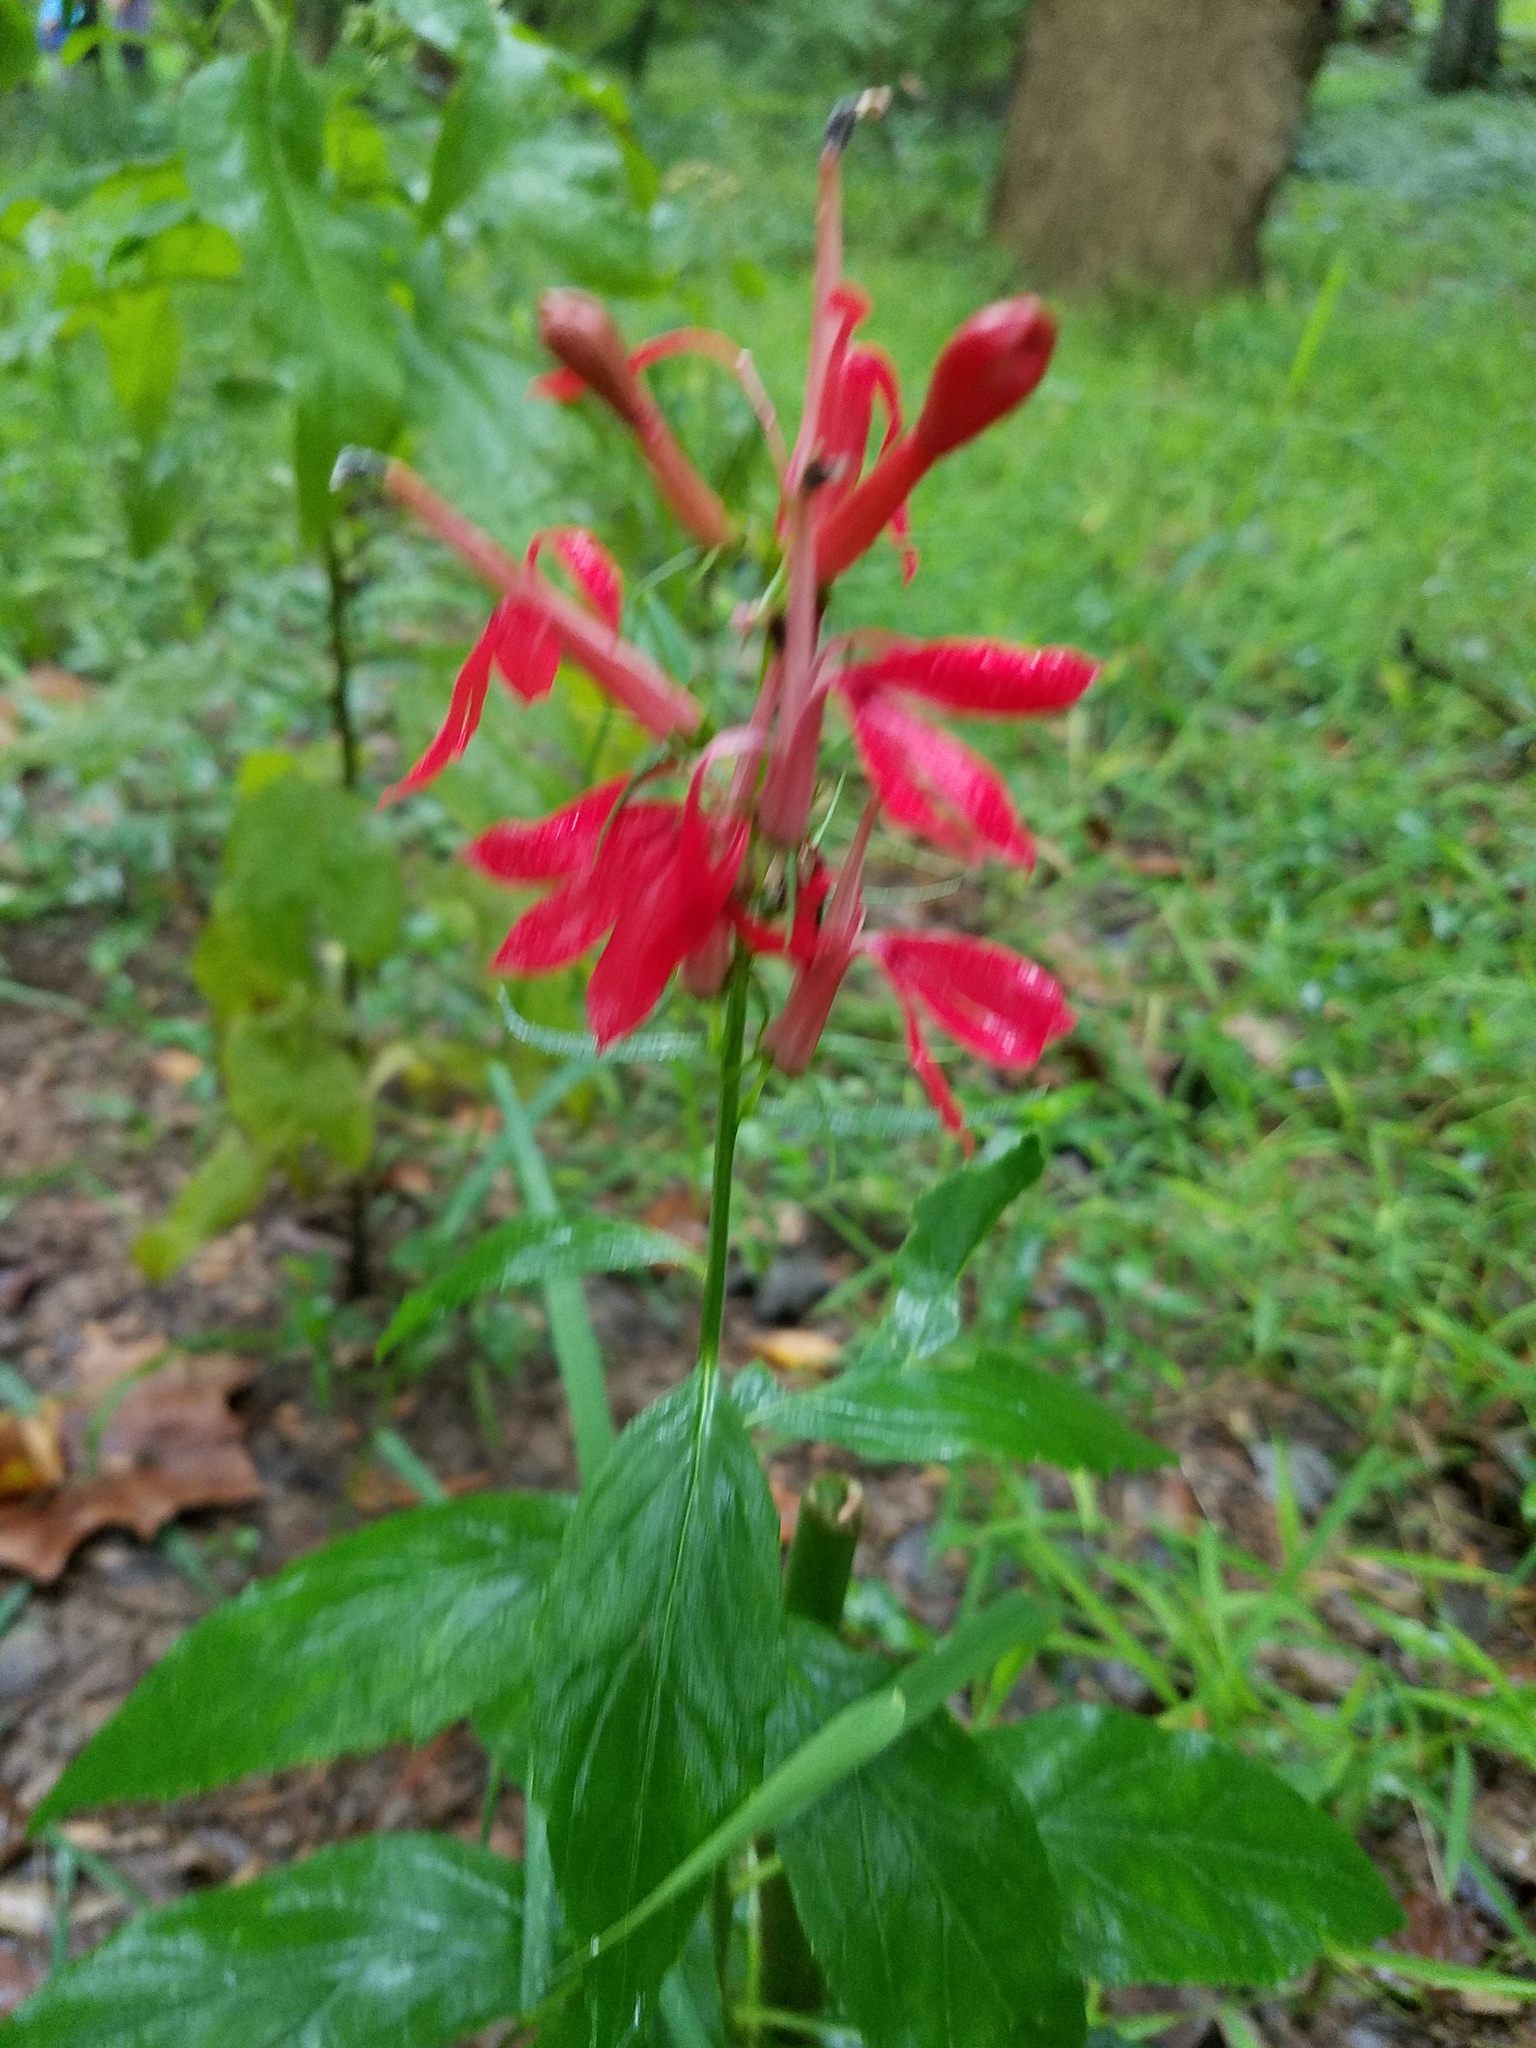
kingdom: Plantae
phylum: Tracheophyta
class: Magnoliopsida
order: Asterales
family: Campanulaceae
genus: Lobelia
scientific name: Lobelia cardinalis
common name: Cardinal flower
